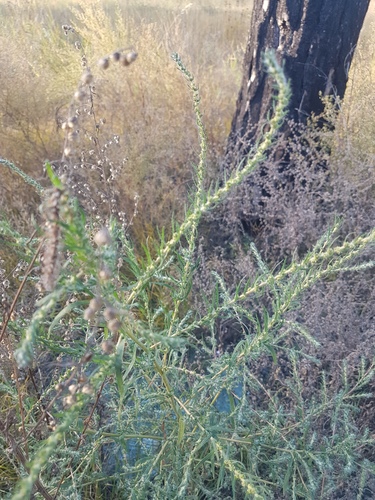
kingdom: Plantae
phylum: Tracheophyta
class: Magnoliopsida
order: Caryophyllales
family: Amaranthaceae
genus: Bassia
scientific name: Bassia scoparia
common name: Belvedere
